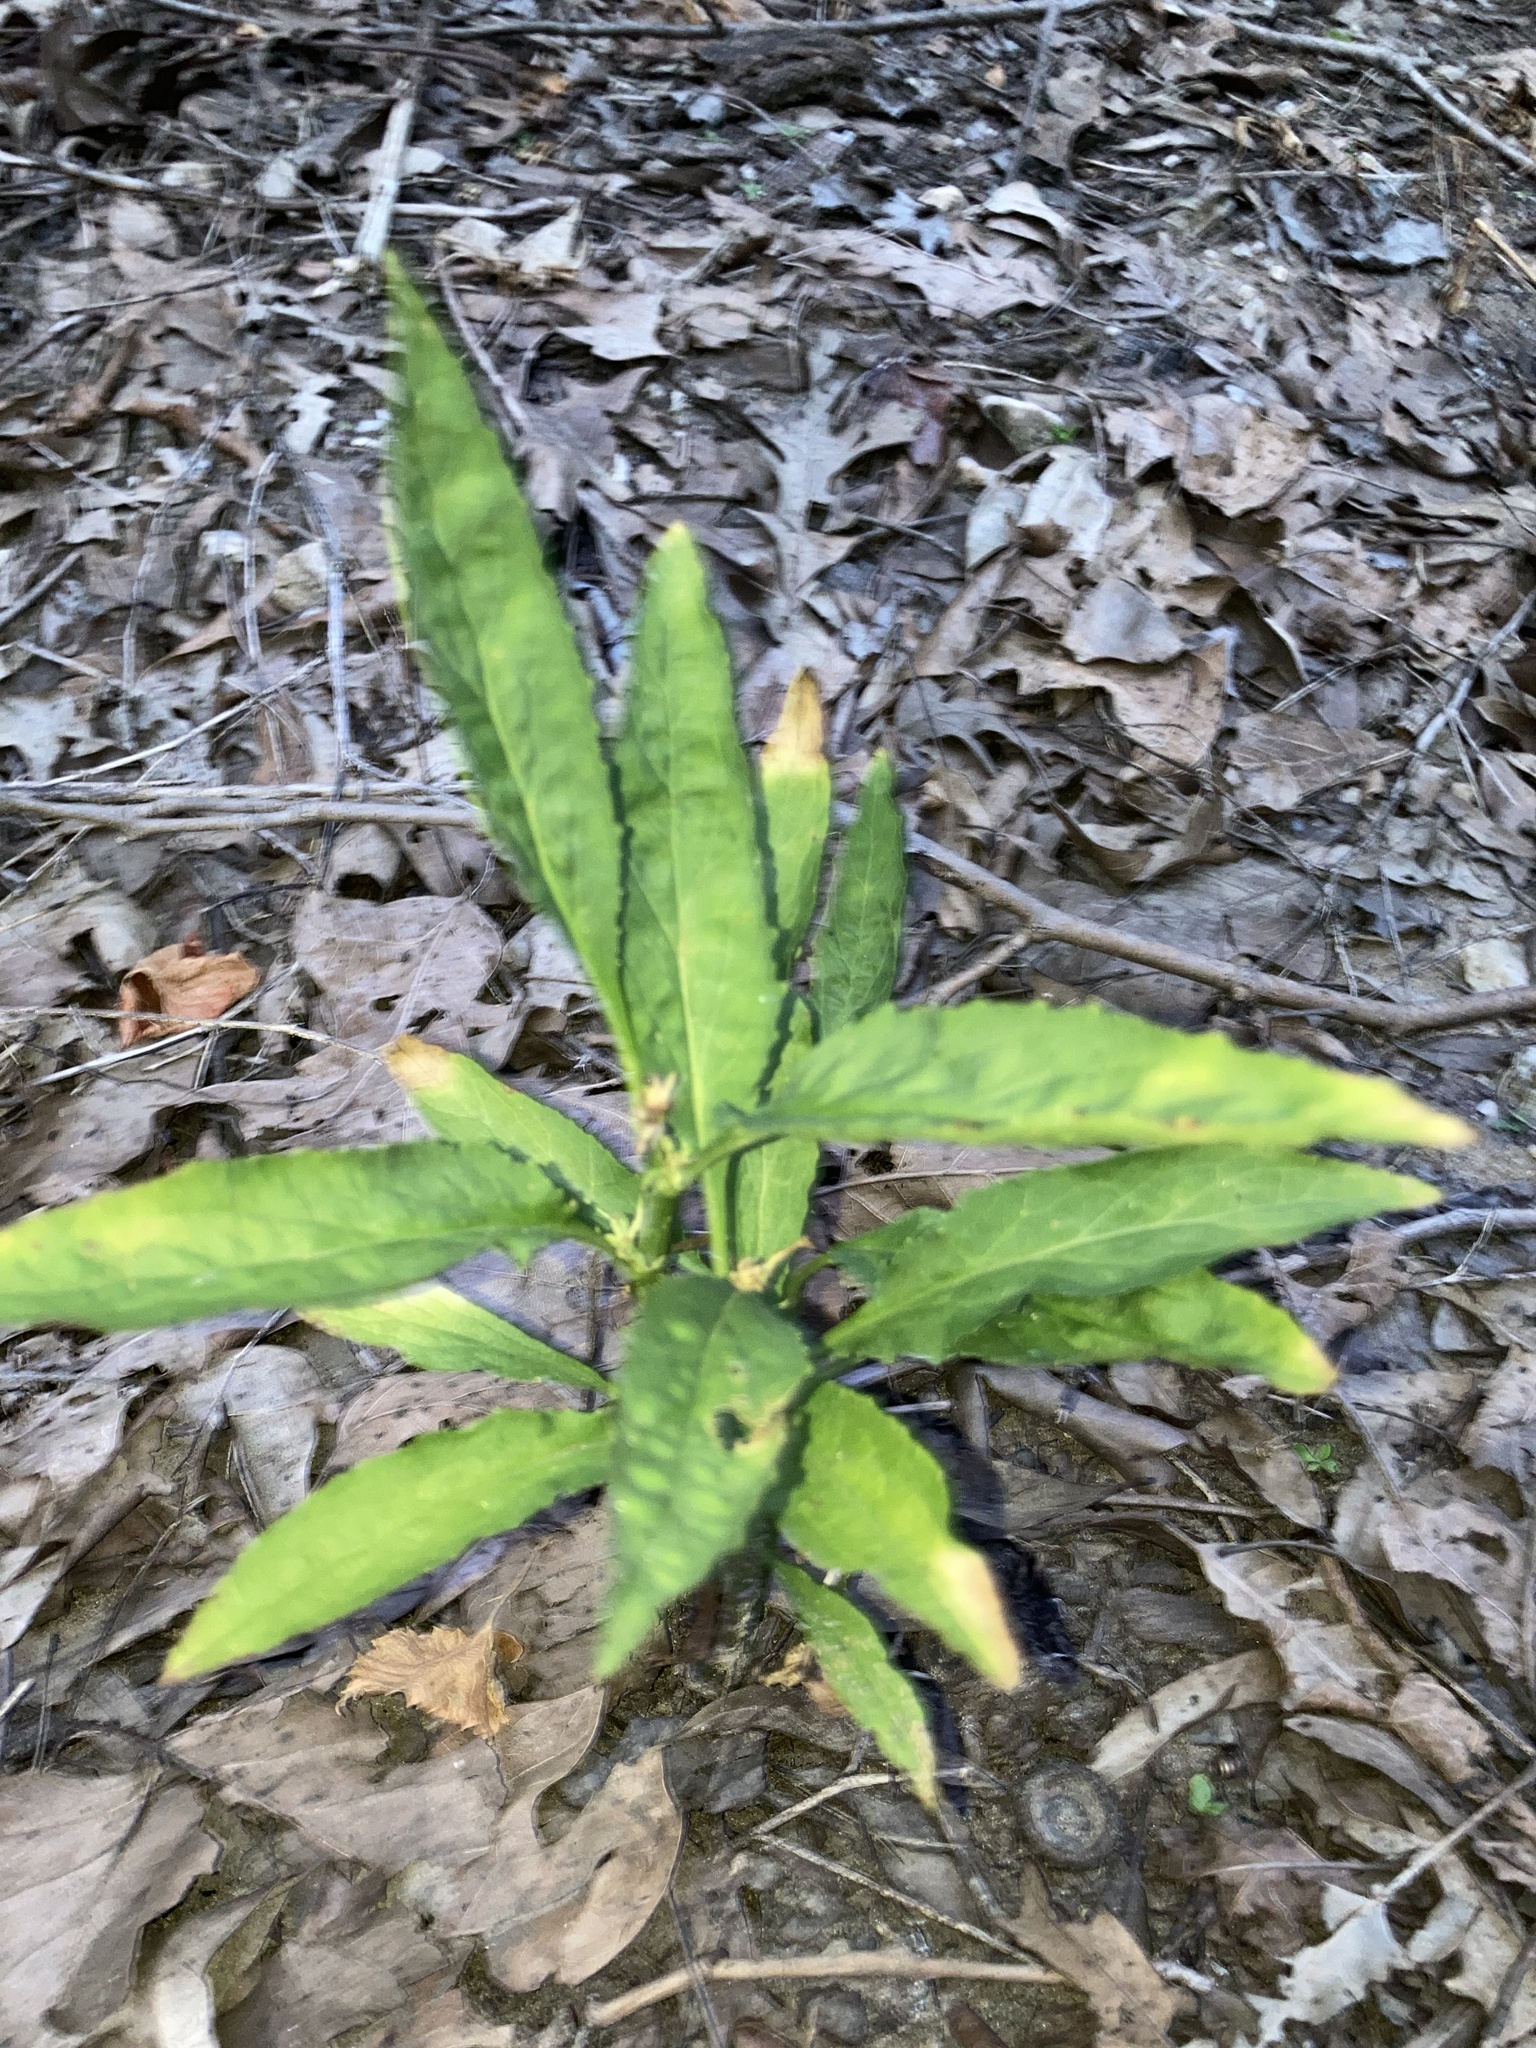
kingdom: Plantae
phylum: Tracheophyta
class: Magnoliopsida
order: Asterales
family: Campanulaceae
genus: Lobelia
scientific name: Lobelia cardinalis
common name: Cardinal flower
